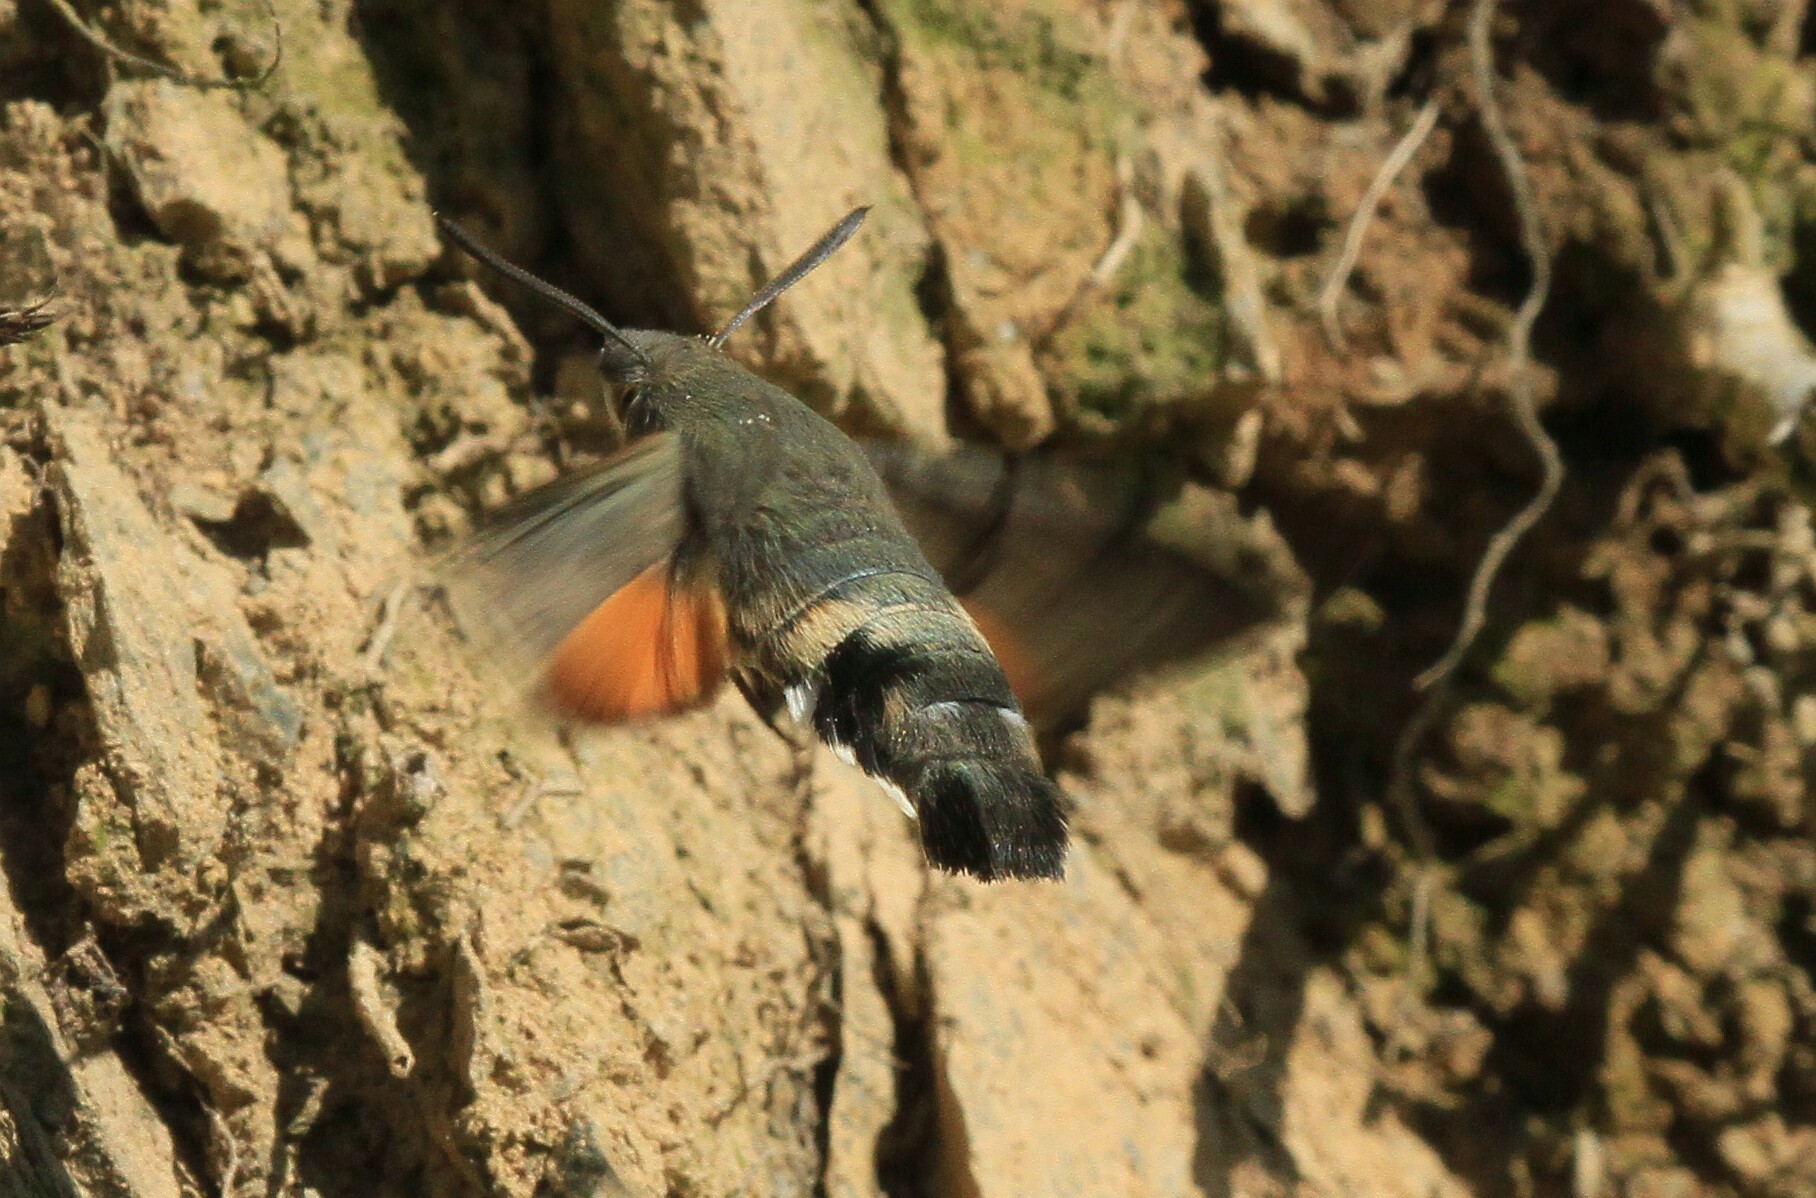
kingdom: Animalia
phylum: Arthropoda
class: Insecta
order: Lepidoptera
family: Sphingidae
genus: Macroglossum
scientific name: Macroglossum stellatarum
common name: Humming-bird hawk-moth
